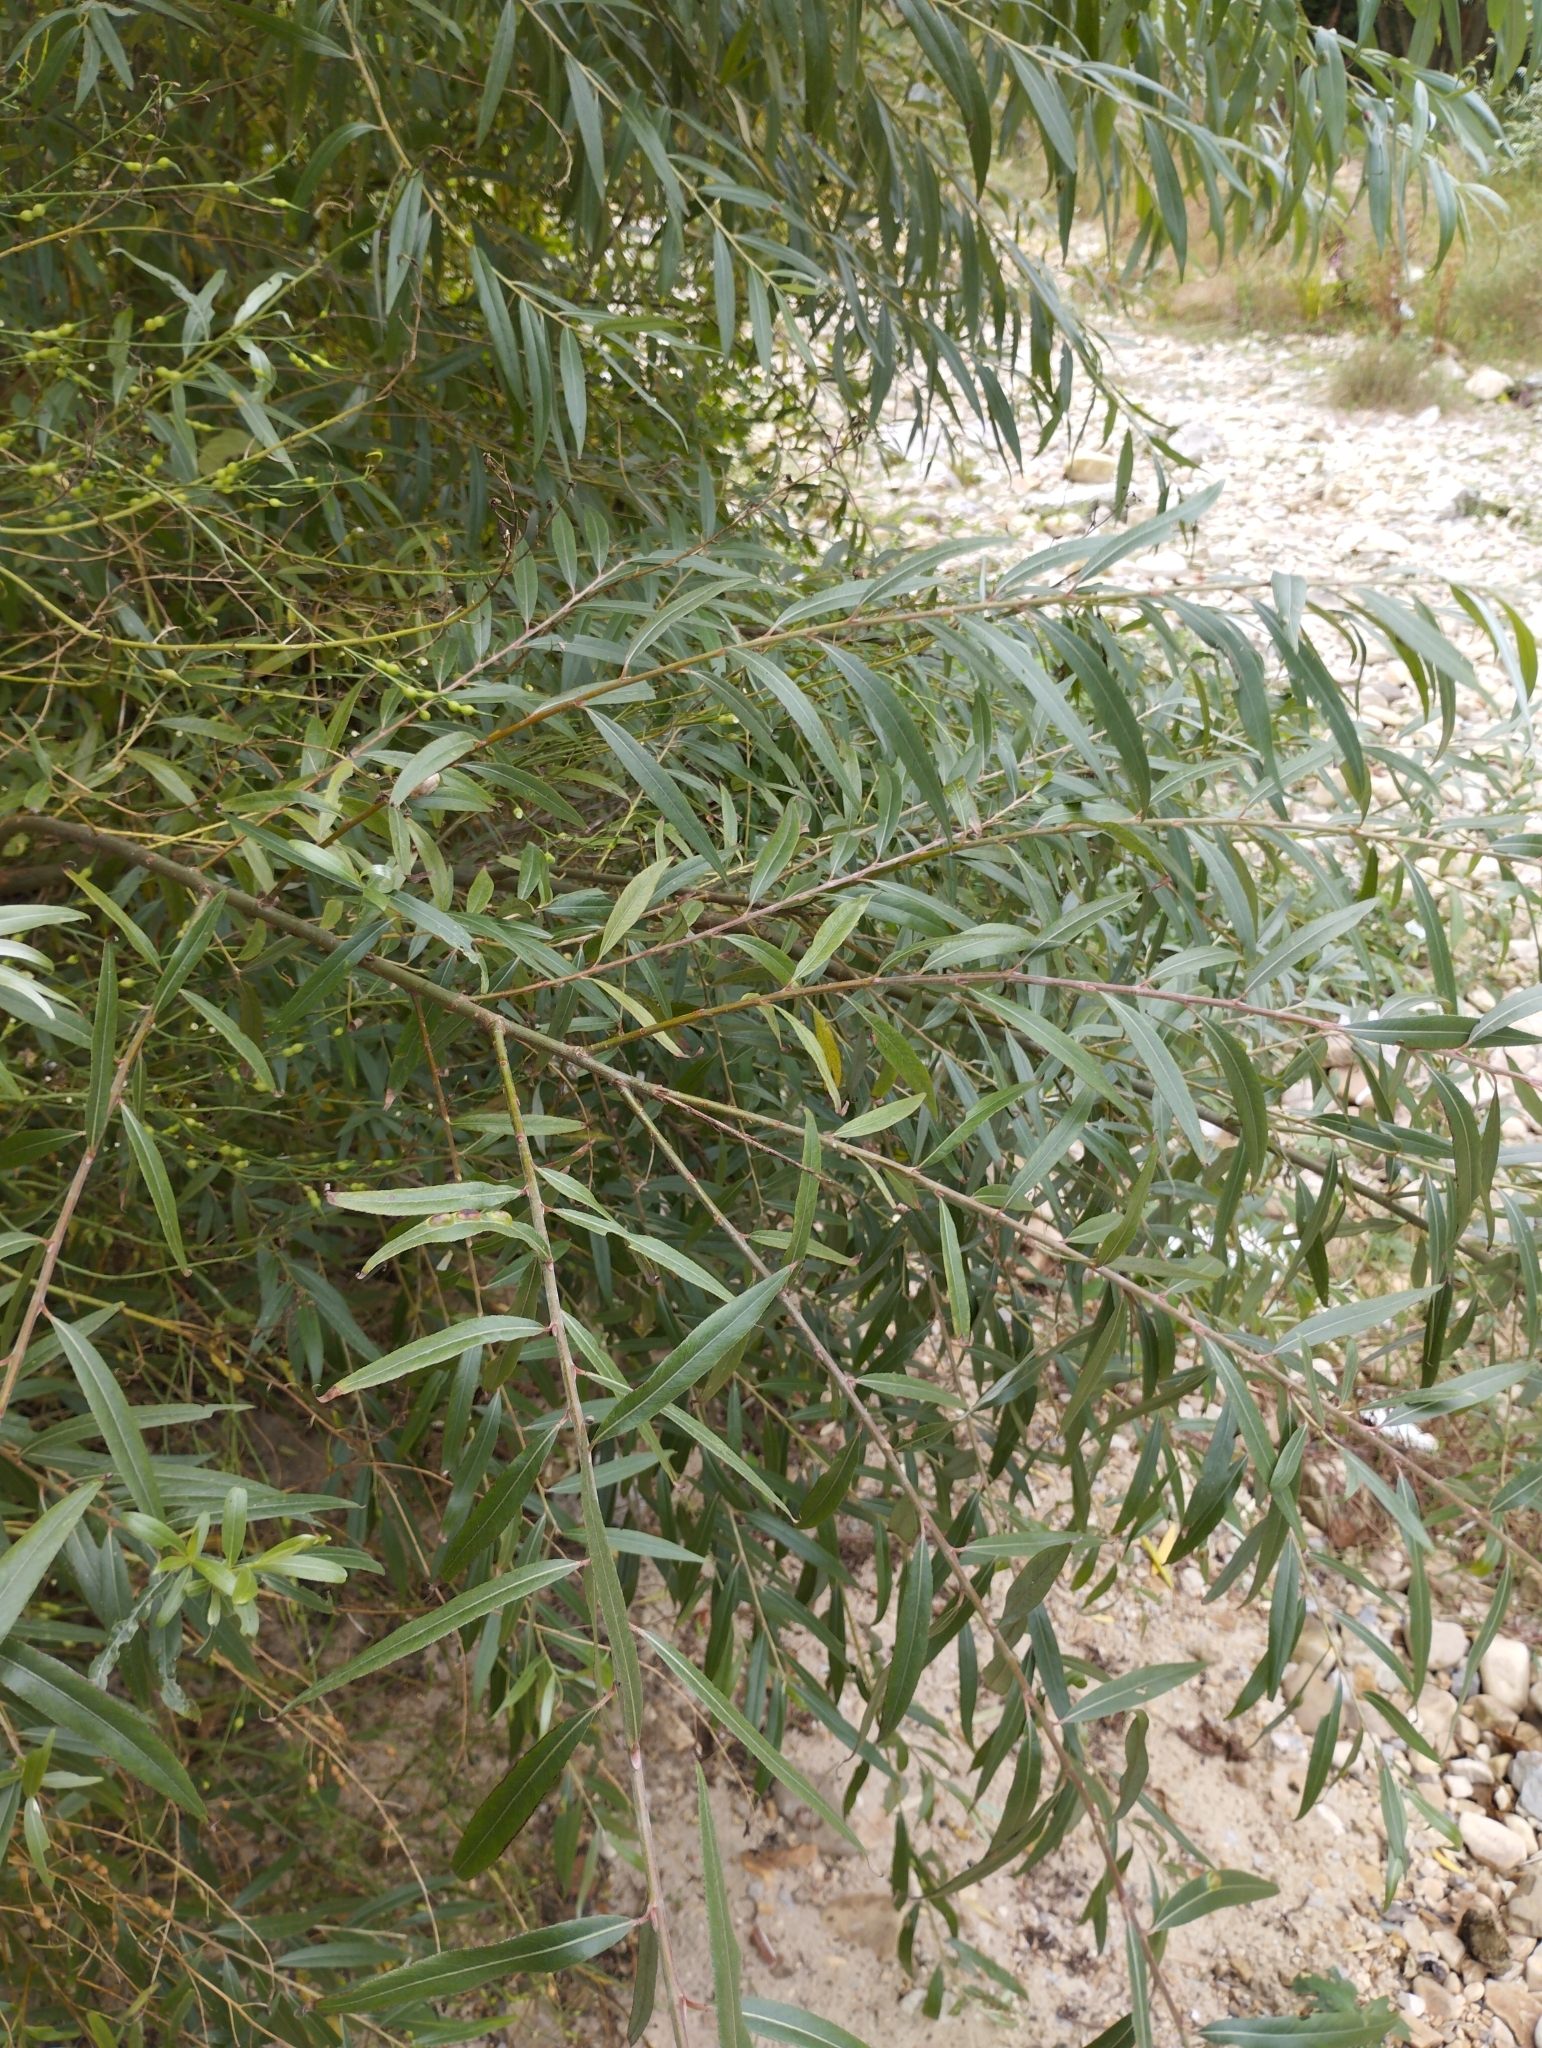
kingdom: Plantae
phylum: Tracheophyta
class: Magnoliopsida
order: Malpighiales
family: Salicaceae
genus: Salix
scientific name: Salix alba
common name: White willow
